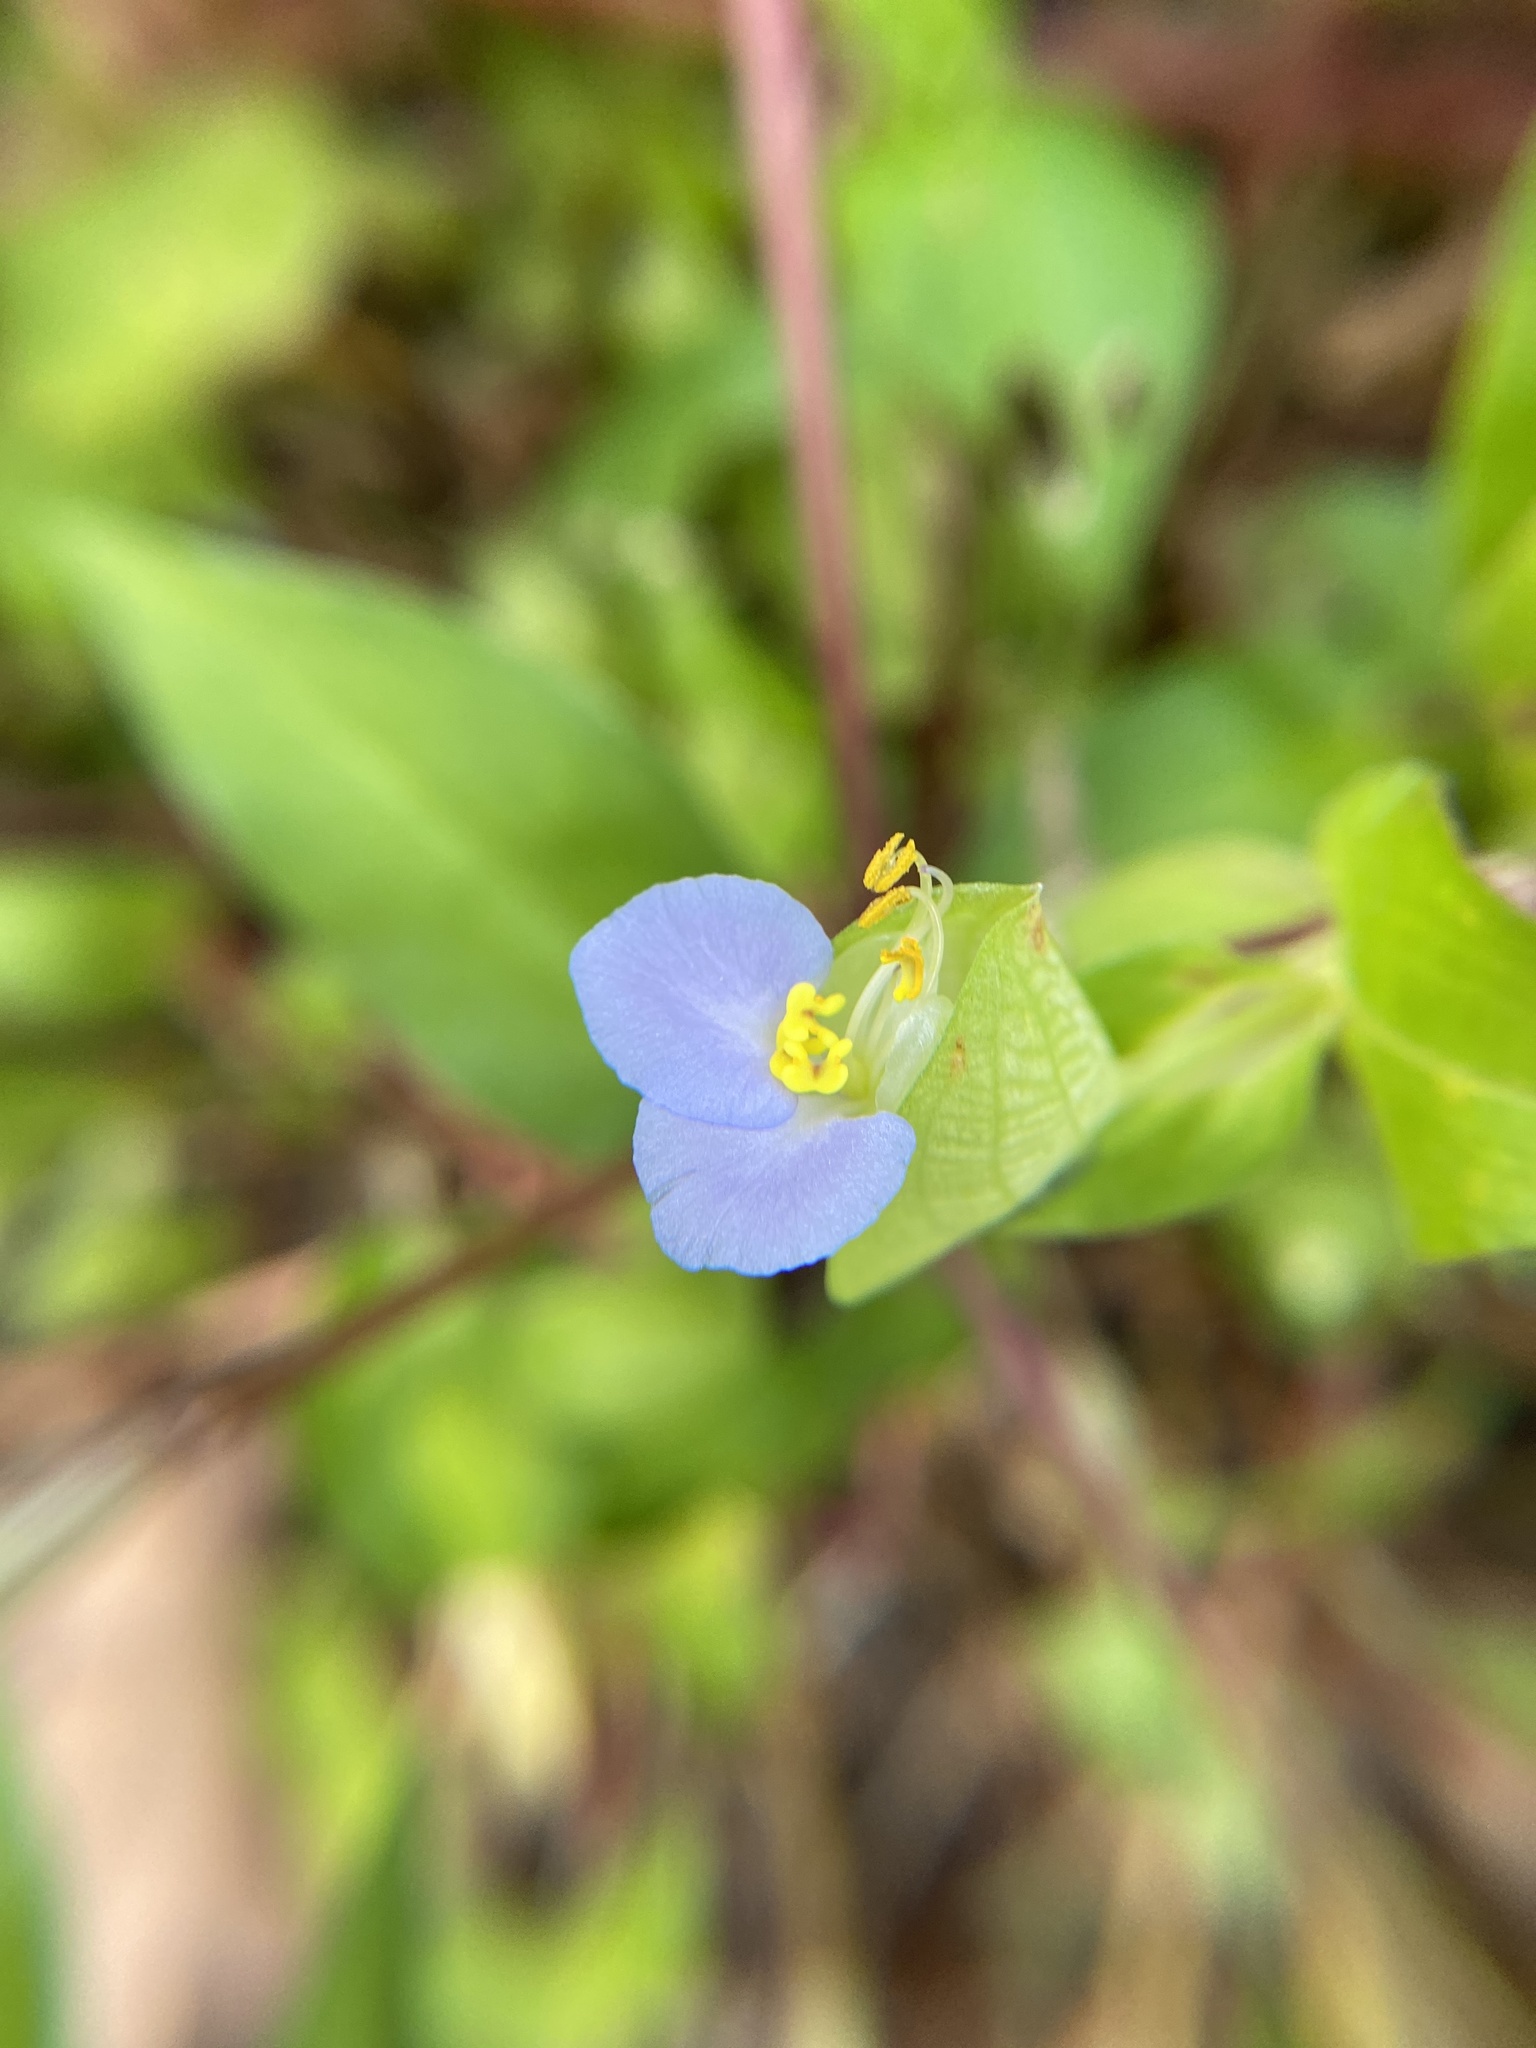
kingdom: Plantae
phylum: Tracheophyta
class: Liliopsida
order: Commelinales
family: Commelinaceae
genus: Commelina
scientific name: Commelina communis
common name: Asiatic dayflower
